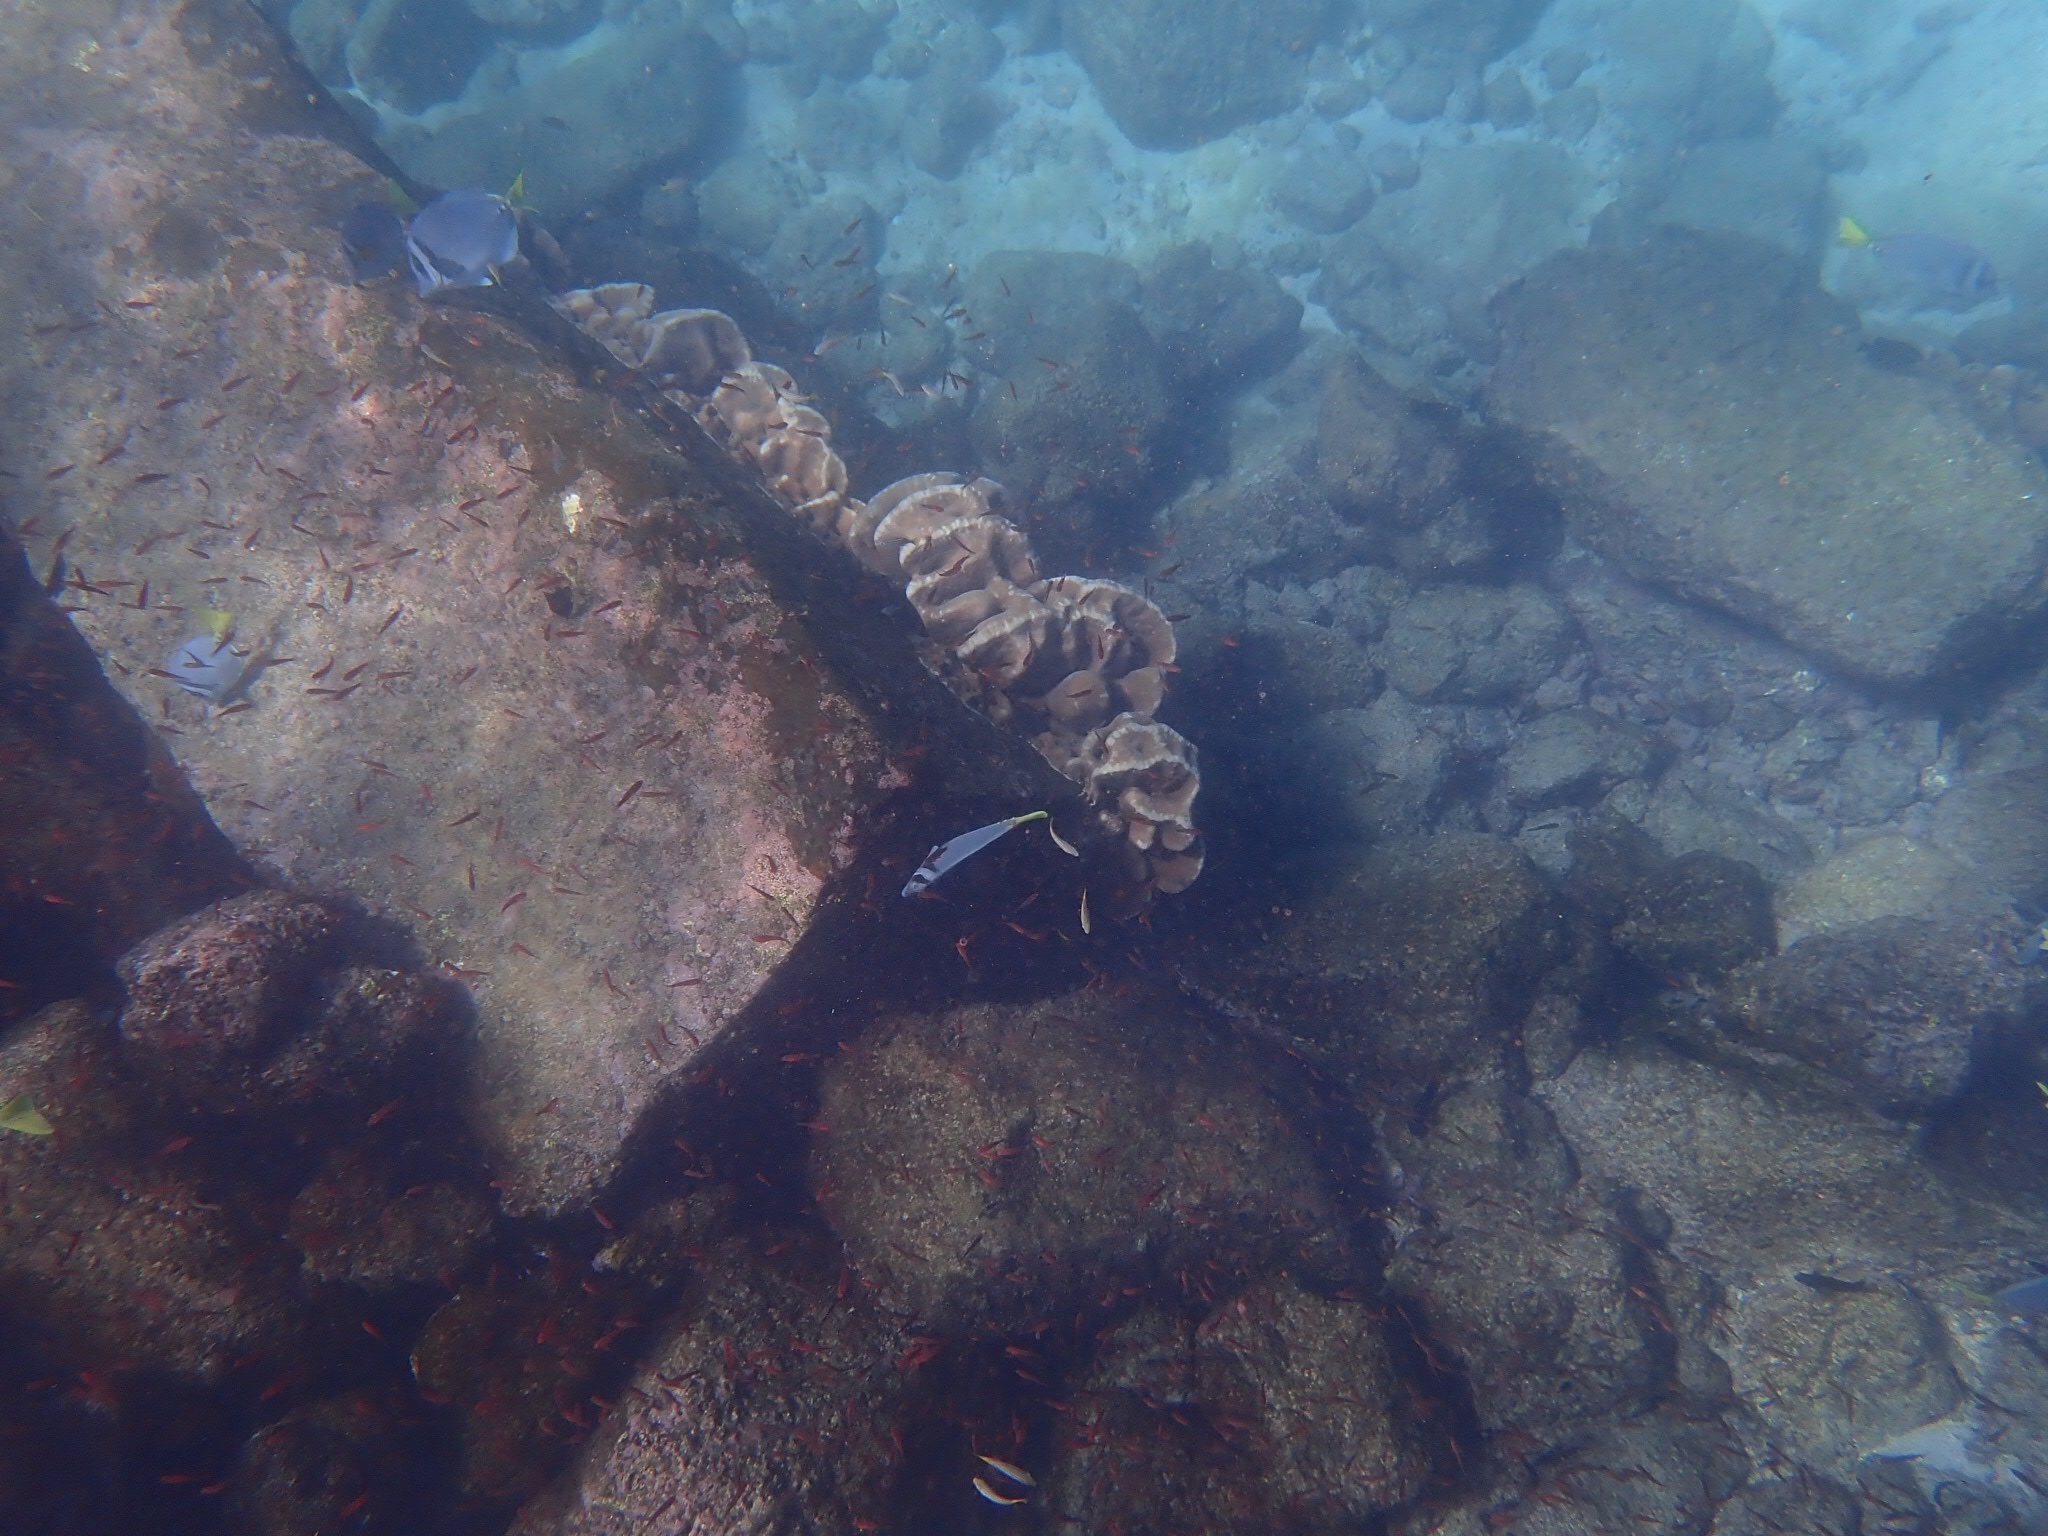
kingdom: Animalia
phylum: Cnidaria
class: Anthozoa
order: Scleractinia
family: Agariciidae
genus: Pavona
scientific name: Pavona duerdeni
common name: Leaf coral
